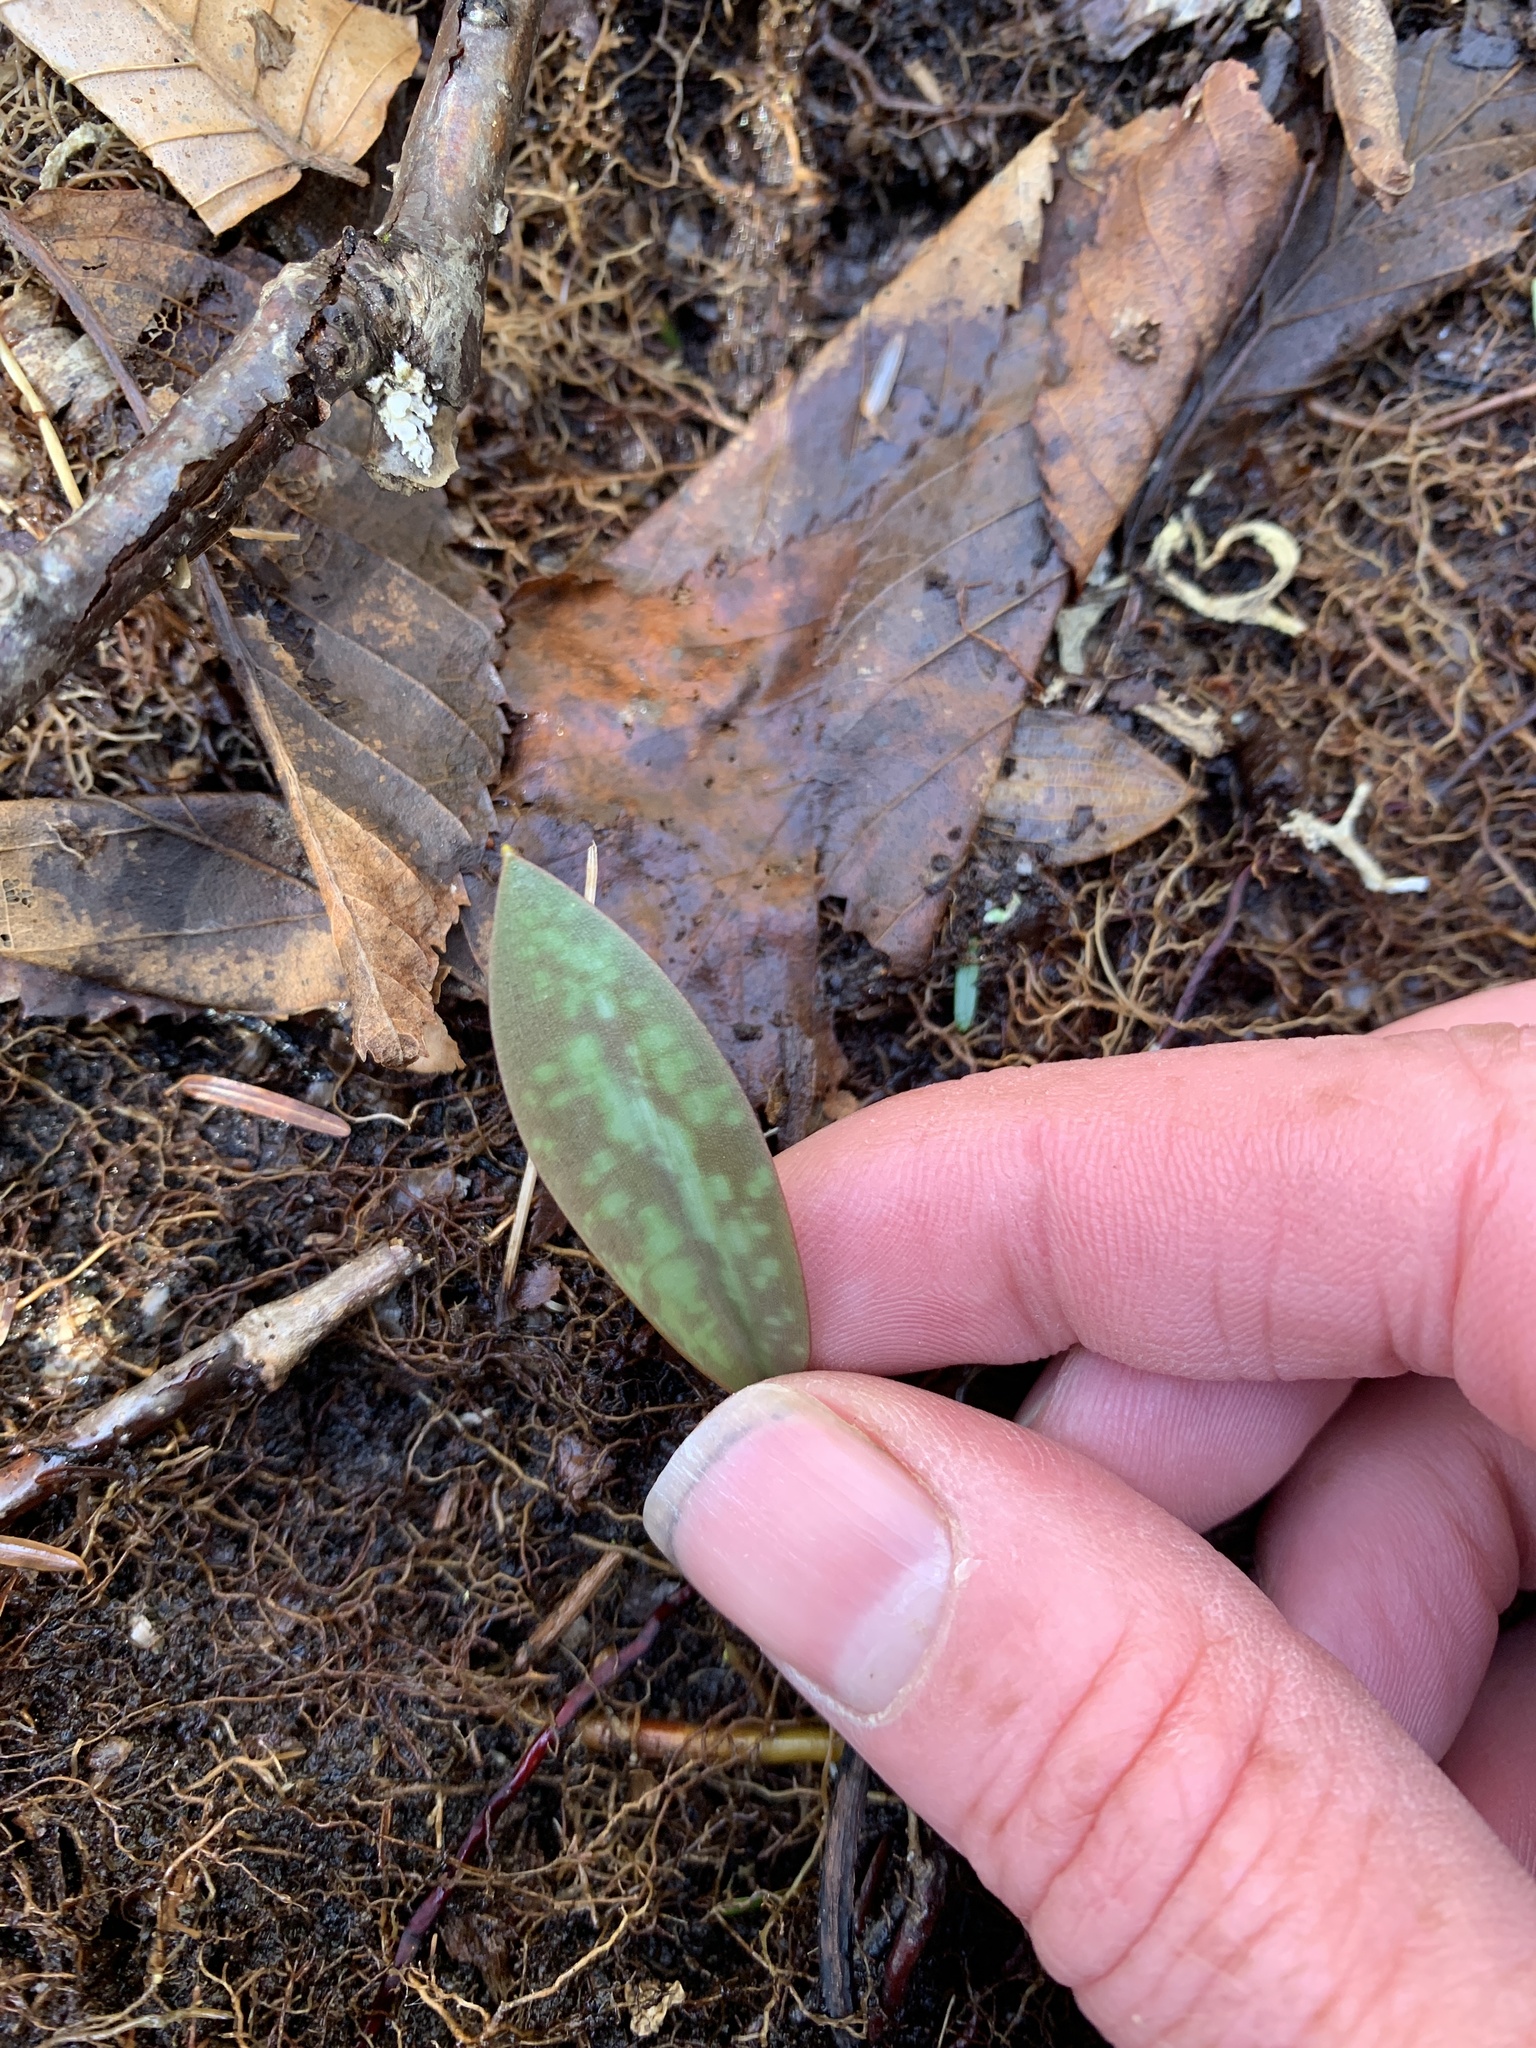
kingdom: Plantae
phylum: Tracheophyta
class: Liliopsida
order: Liliales
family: Liliaceae
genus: Erythronium
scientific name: Erythronium americanum
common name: Yellow adder's-tongue
